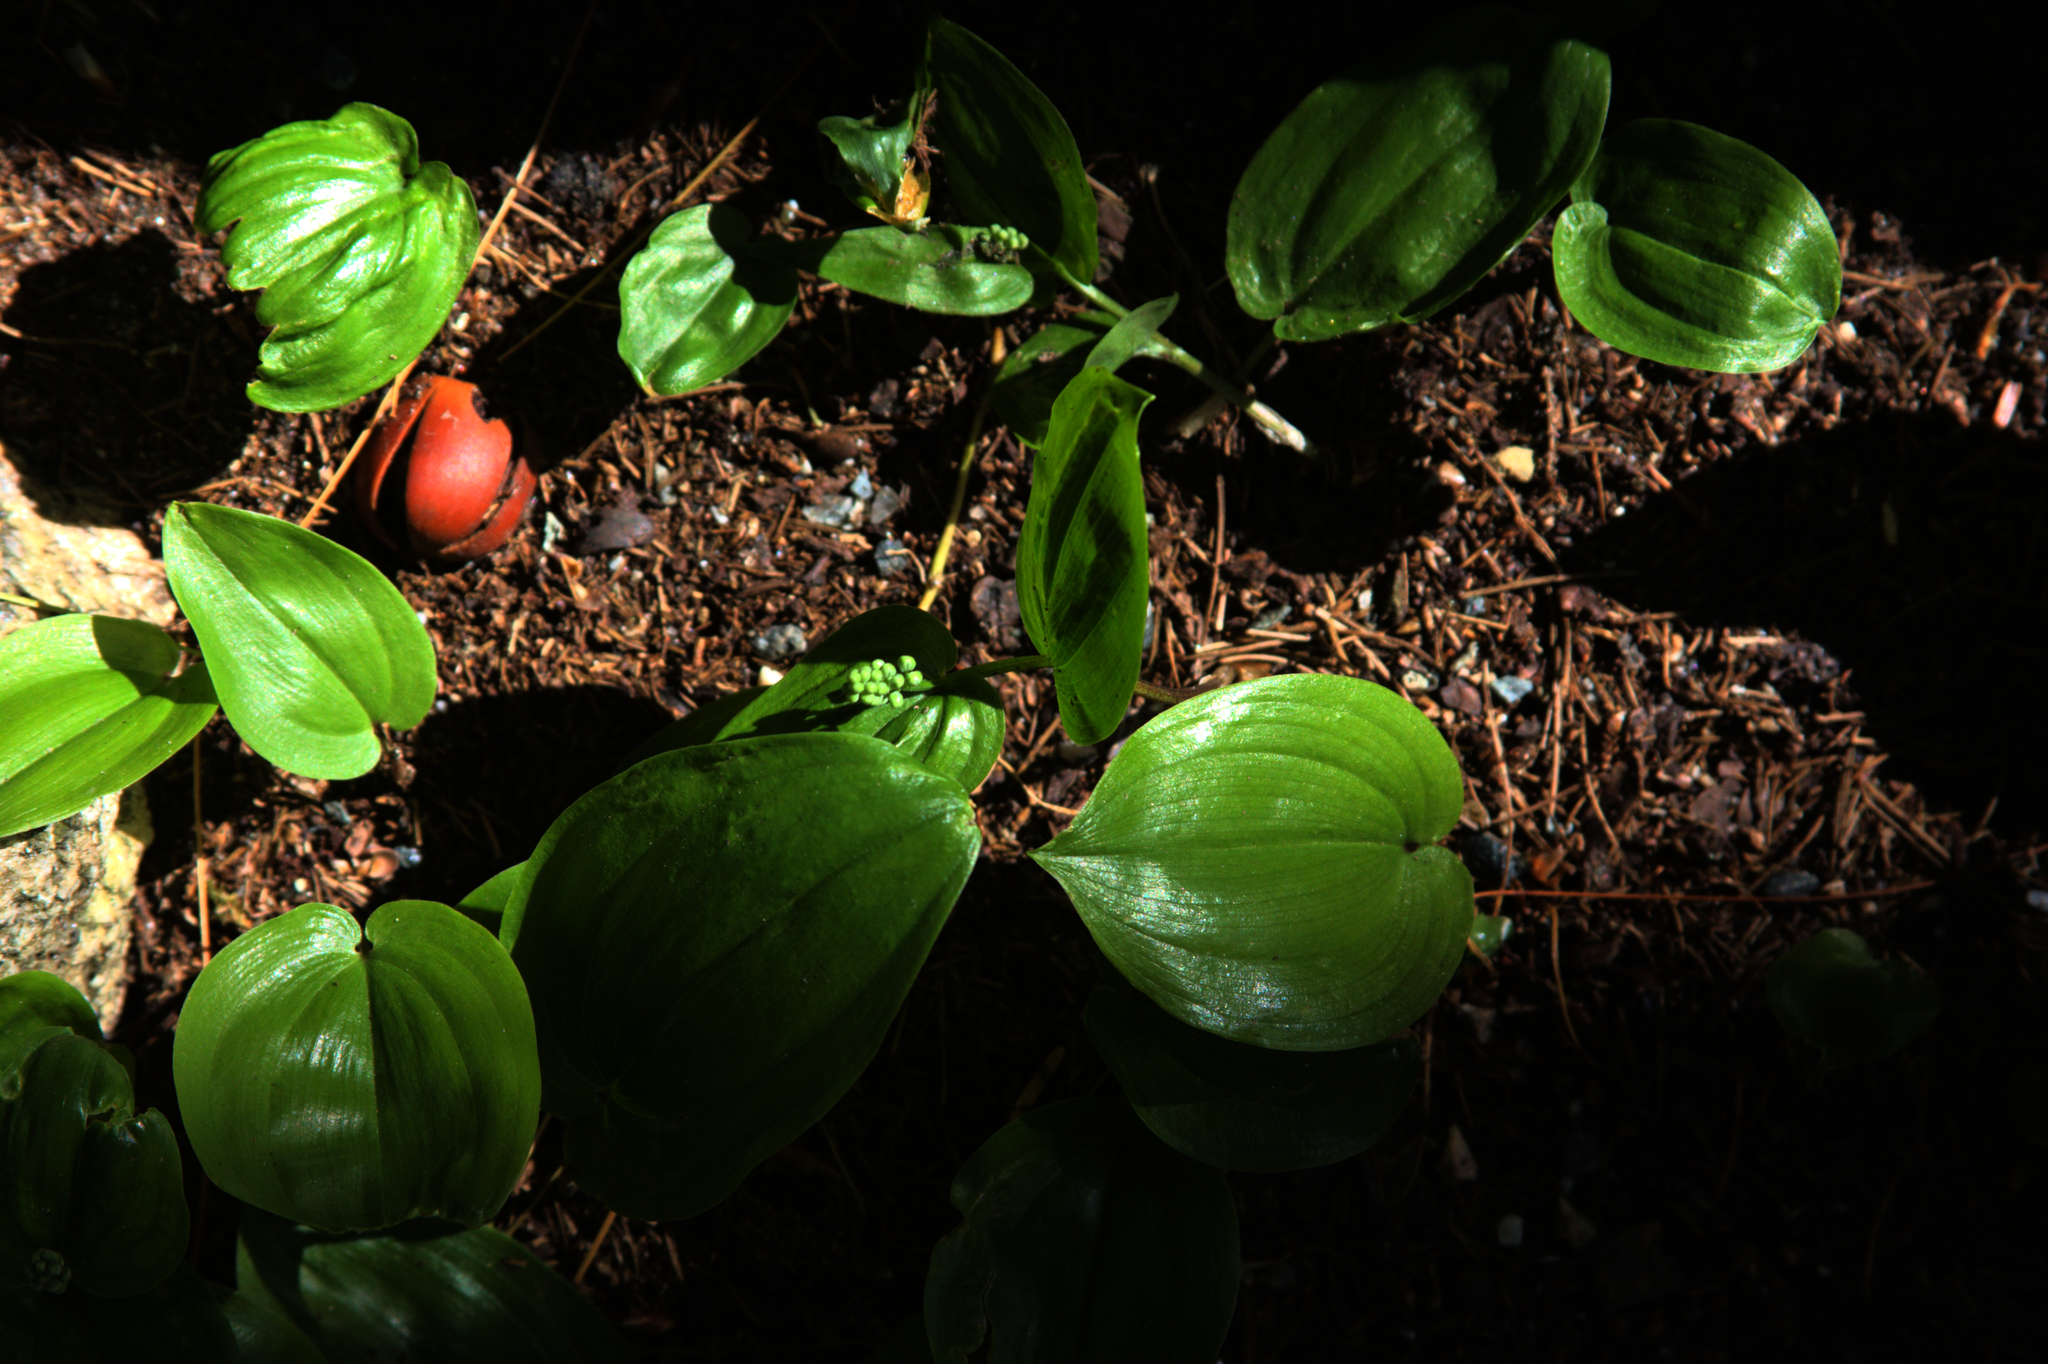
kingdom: Plantae
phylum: Tracheophyta
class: Liliopsida
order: Asparagales
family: Asparagaceae
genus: Maianthemum
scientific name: Maianthemum canadense
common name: False lily-of-the-valley
